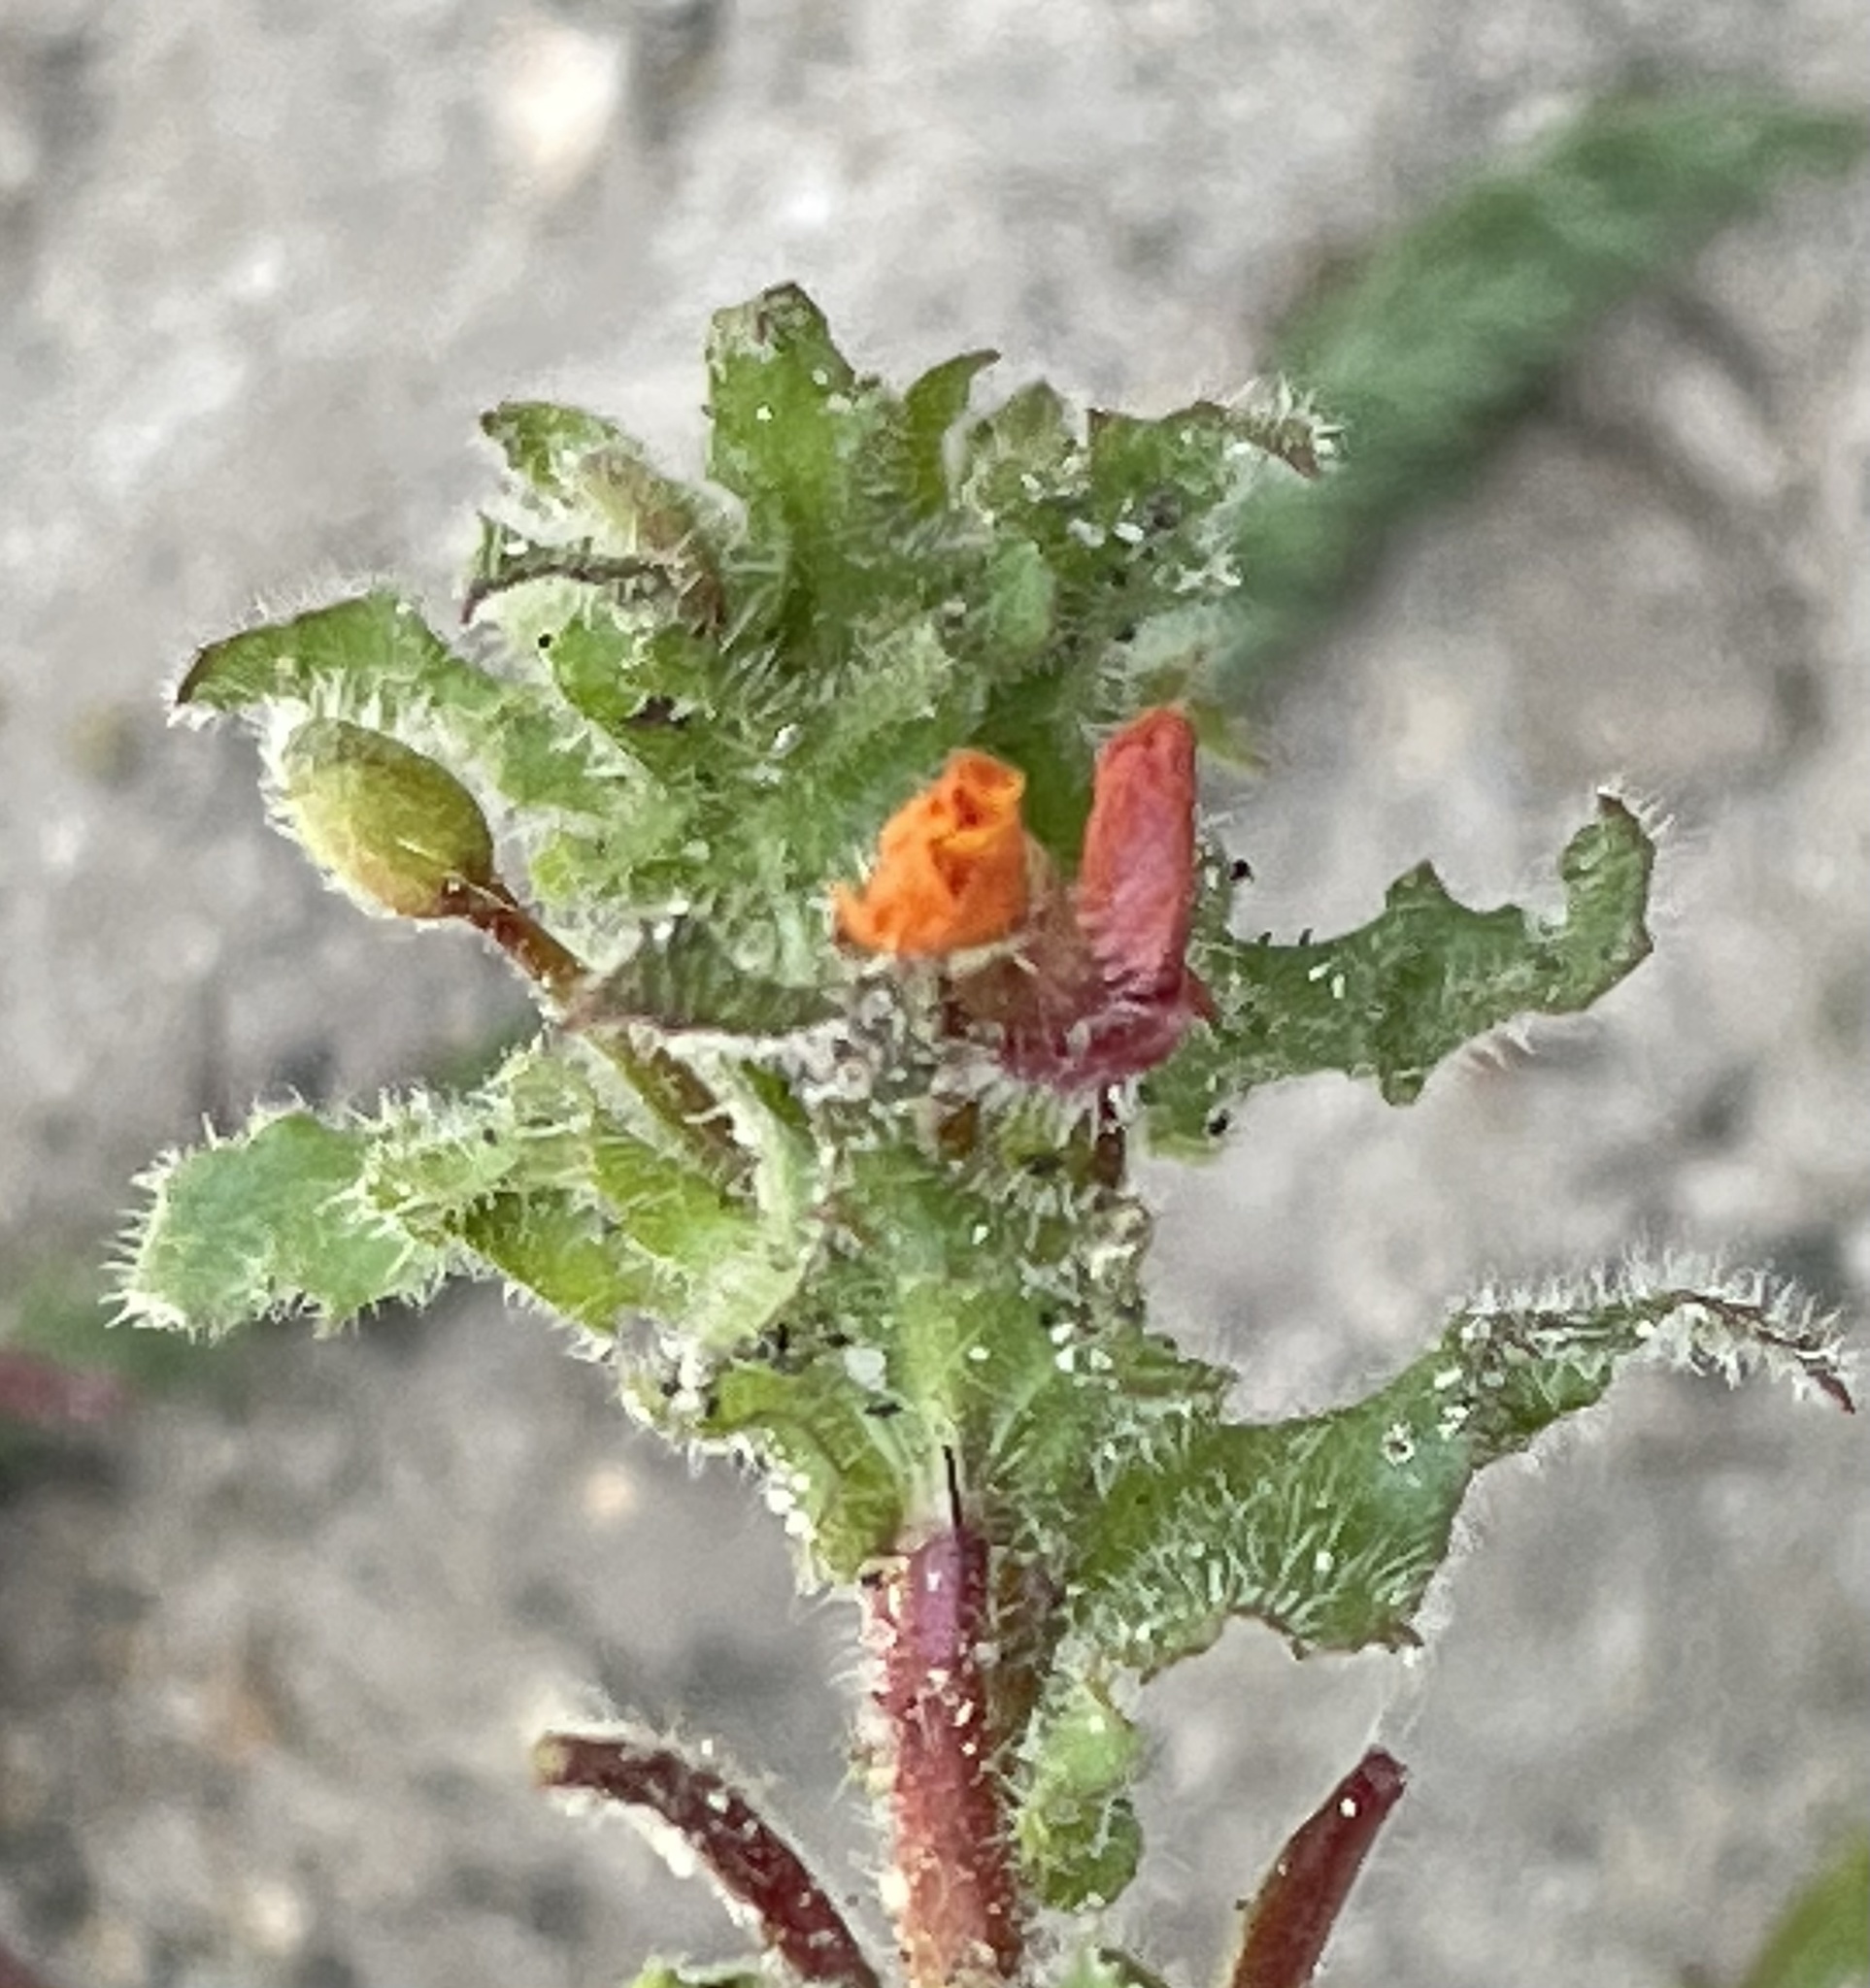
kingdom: Plantae
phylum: Tracheophyta
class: Magnoliopsida
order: Myrtales
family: Onagraceae
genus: Camissoniopsis
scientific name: Camissoniopsis hirtella
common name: Santa cruz island suncup
